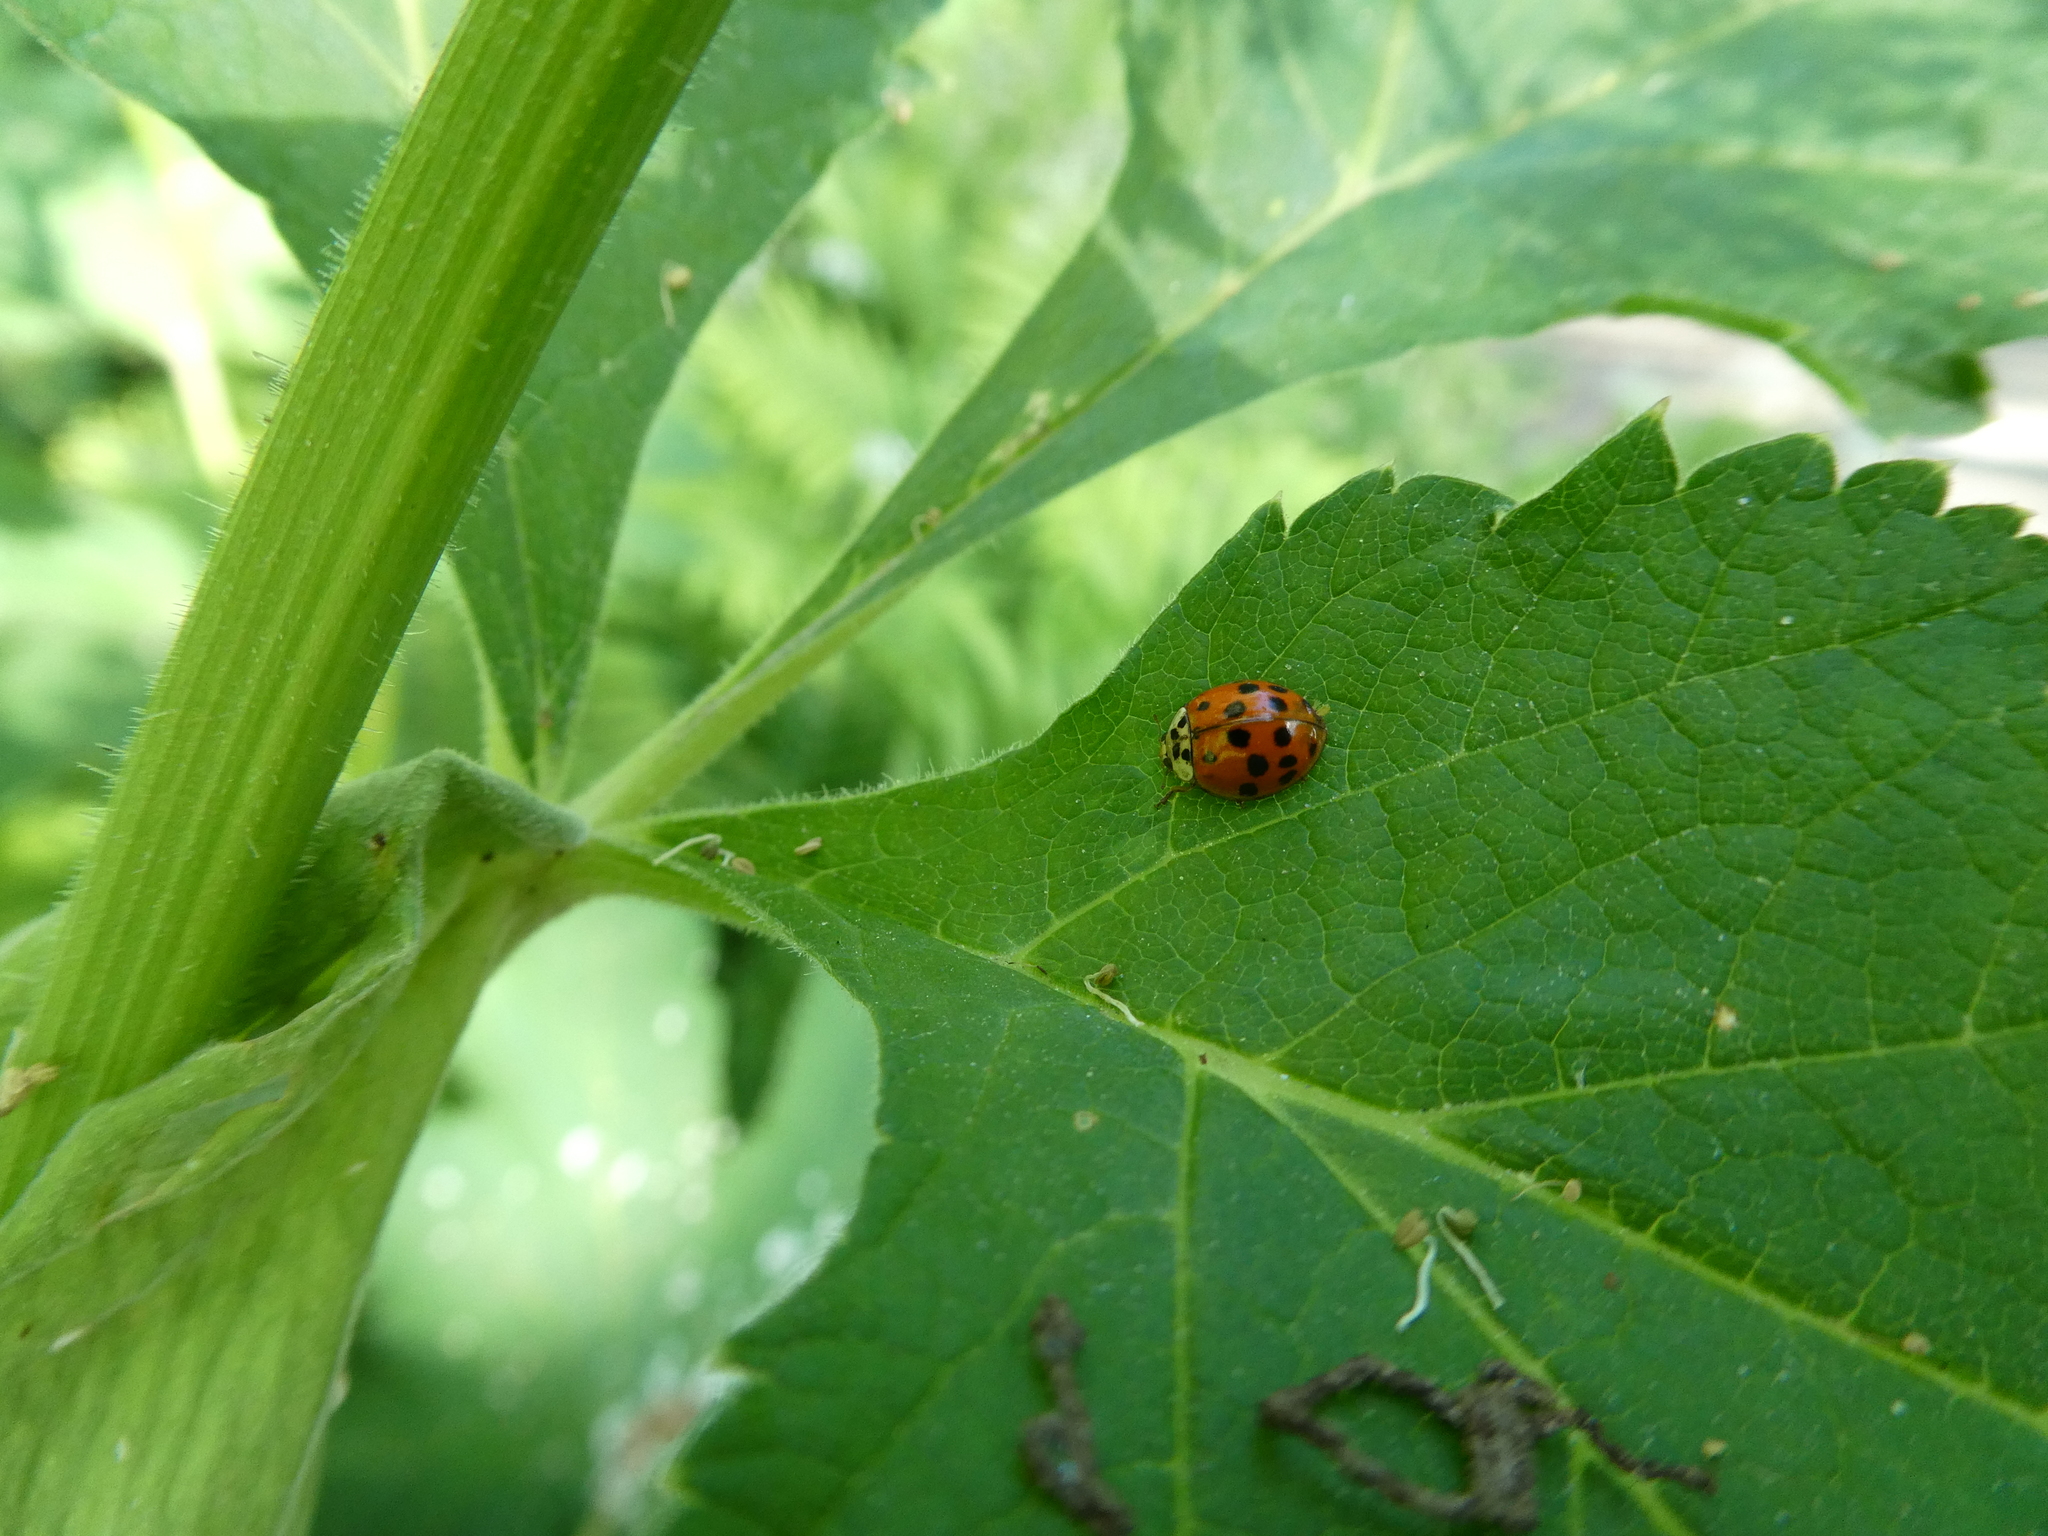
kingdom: Animalia
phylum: Arthropoda
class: Insecta
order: Coleoptera
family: Coccinellidae
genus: Harmonia
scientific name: Harmonia axyridis
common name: Harlequin ladybird
